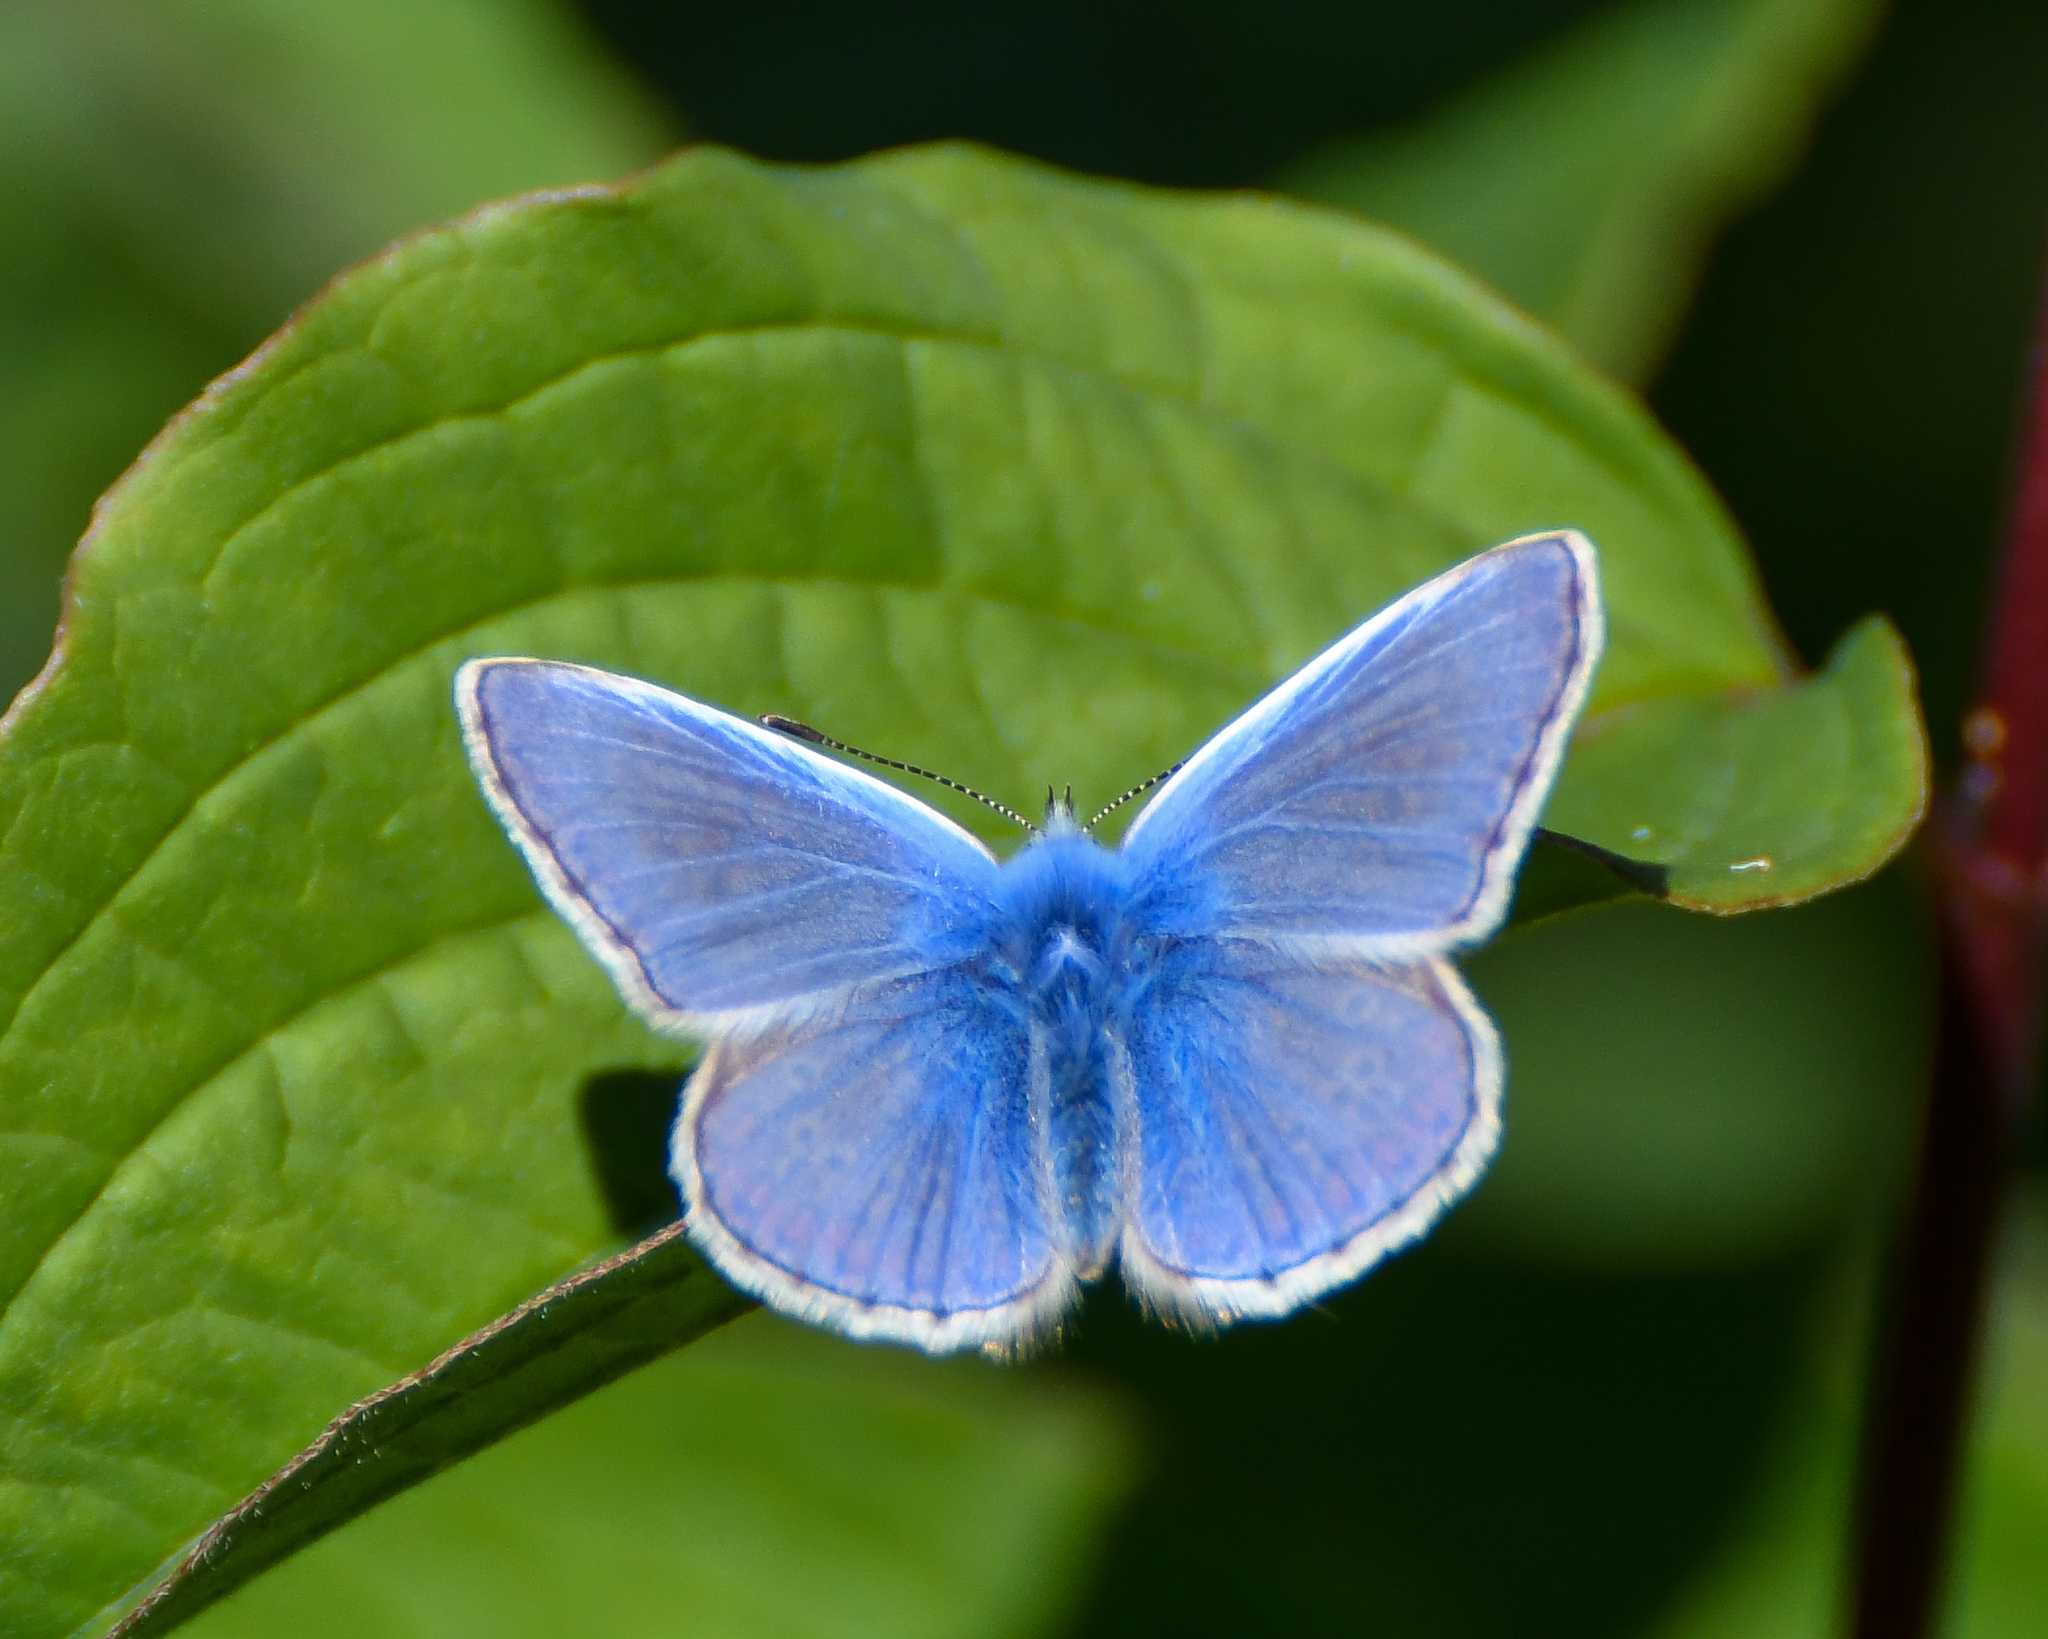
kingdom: Animalia
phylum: Arthropoda
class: Insecta
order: Lepidoptera
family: Lycaenidae
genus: Polyommatus
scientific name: Polyommatus icarus
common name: Common blue
